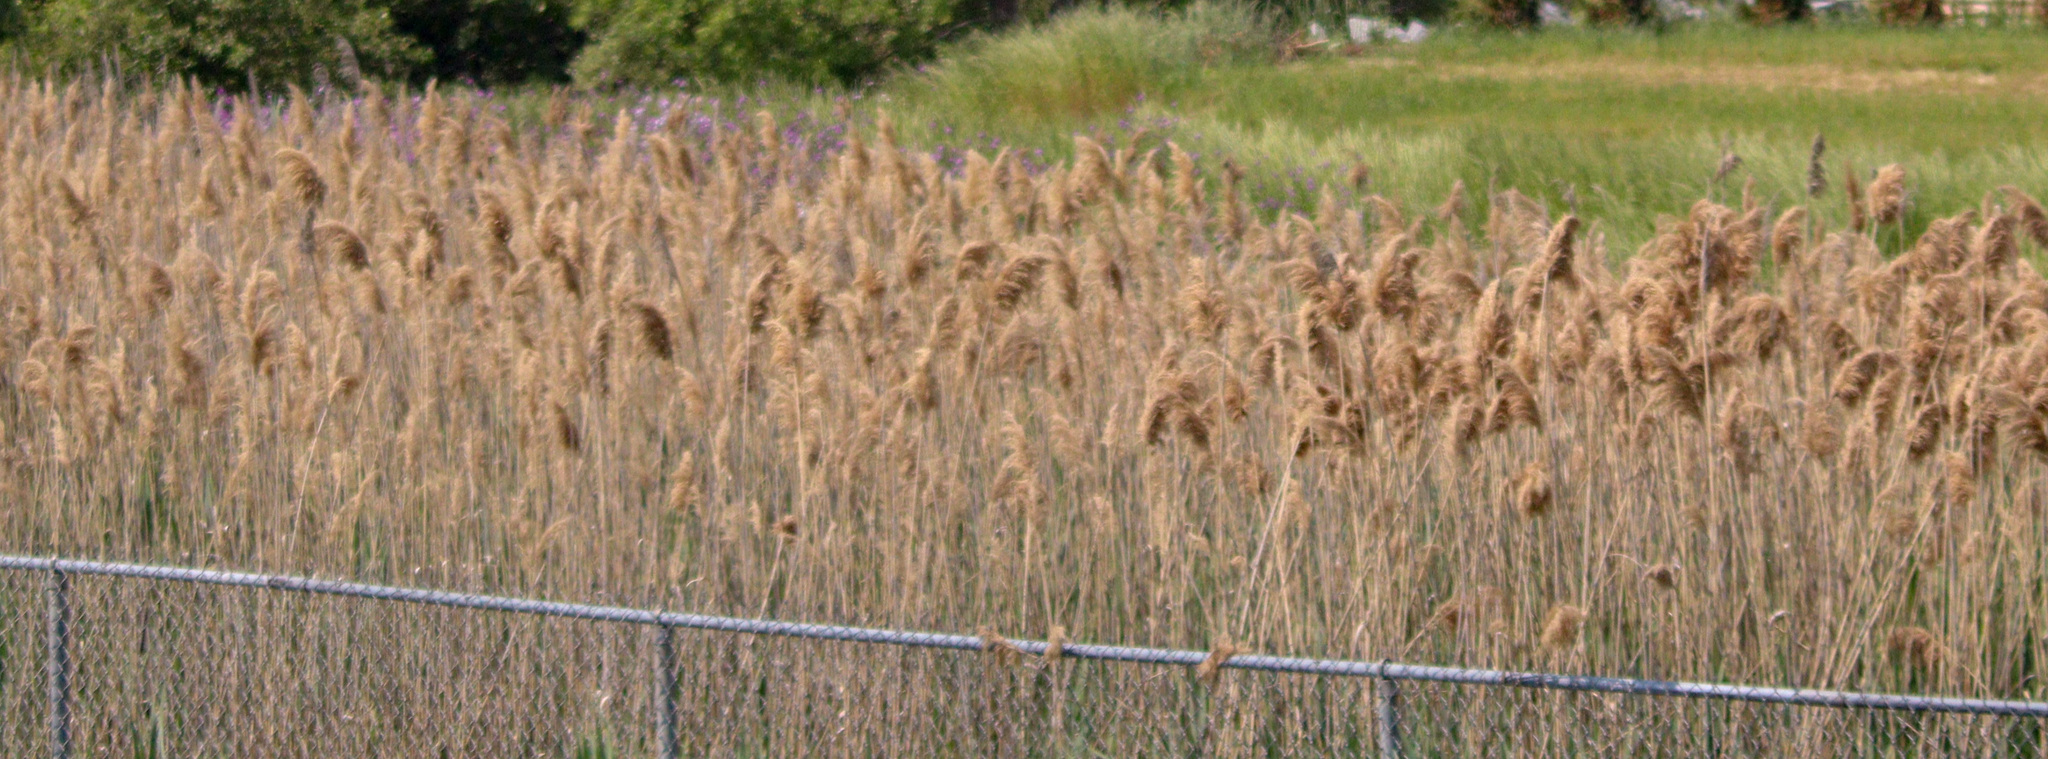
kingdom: Plantae
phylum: Tracheophyta
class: Liliopsida
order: Poales
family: Poaceae
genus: Phragmites
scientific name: Phragmites australis
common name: Common reed
